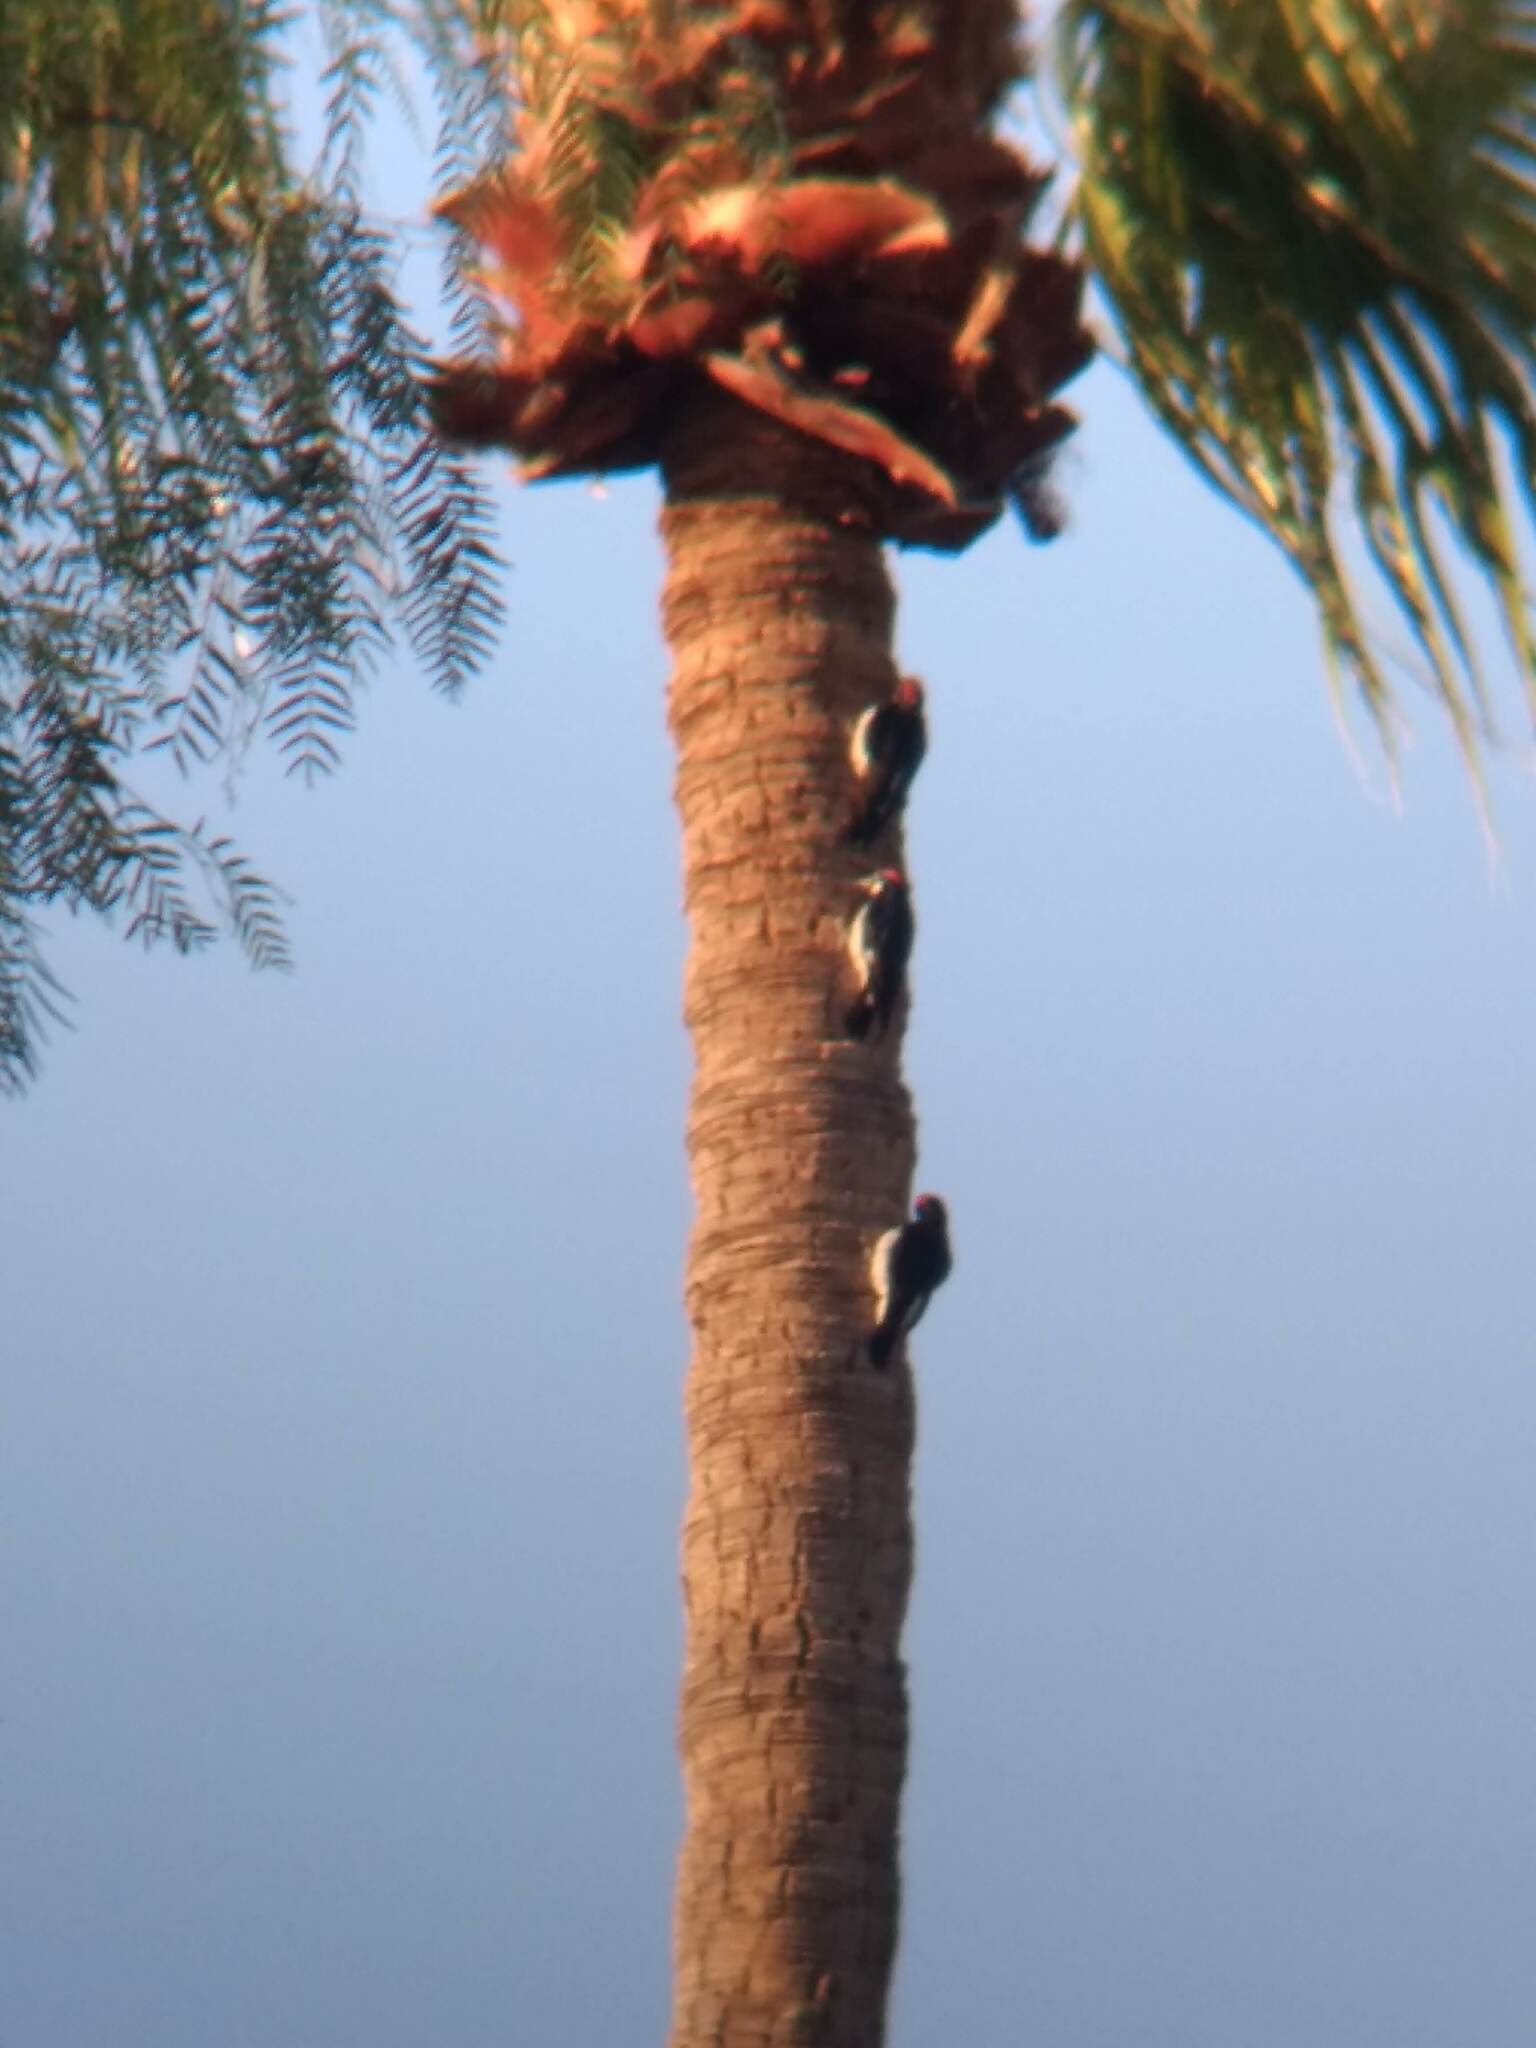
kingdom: Animalia
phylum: Chordata
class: Aves
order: Piciformes
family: Picidae
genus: Melanerpes
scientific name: Melanerpes formicivorus
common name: Acorn woodpecker
